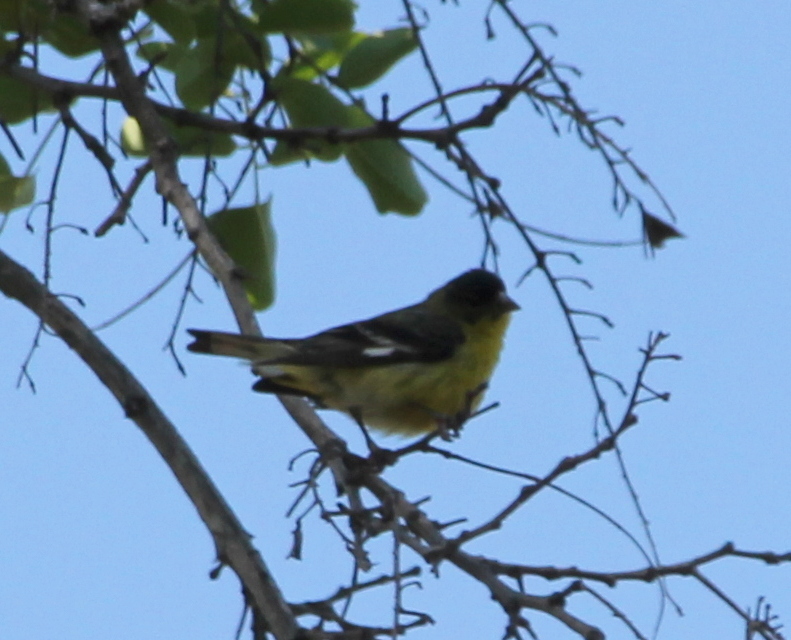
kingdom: Animalia
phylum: Chordata
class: Aves
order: Passeriformes
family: Fringillidae
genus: Spinus
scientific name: Spinus psaltria
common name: Lesser goldfinch
